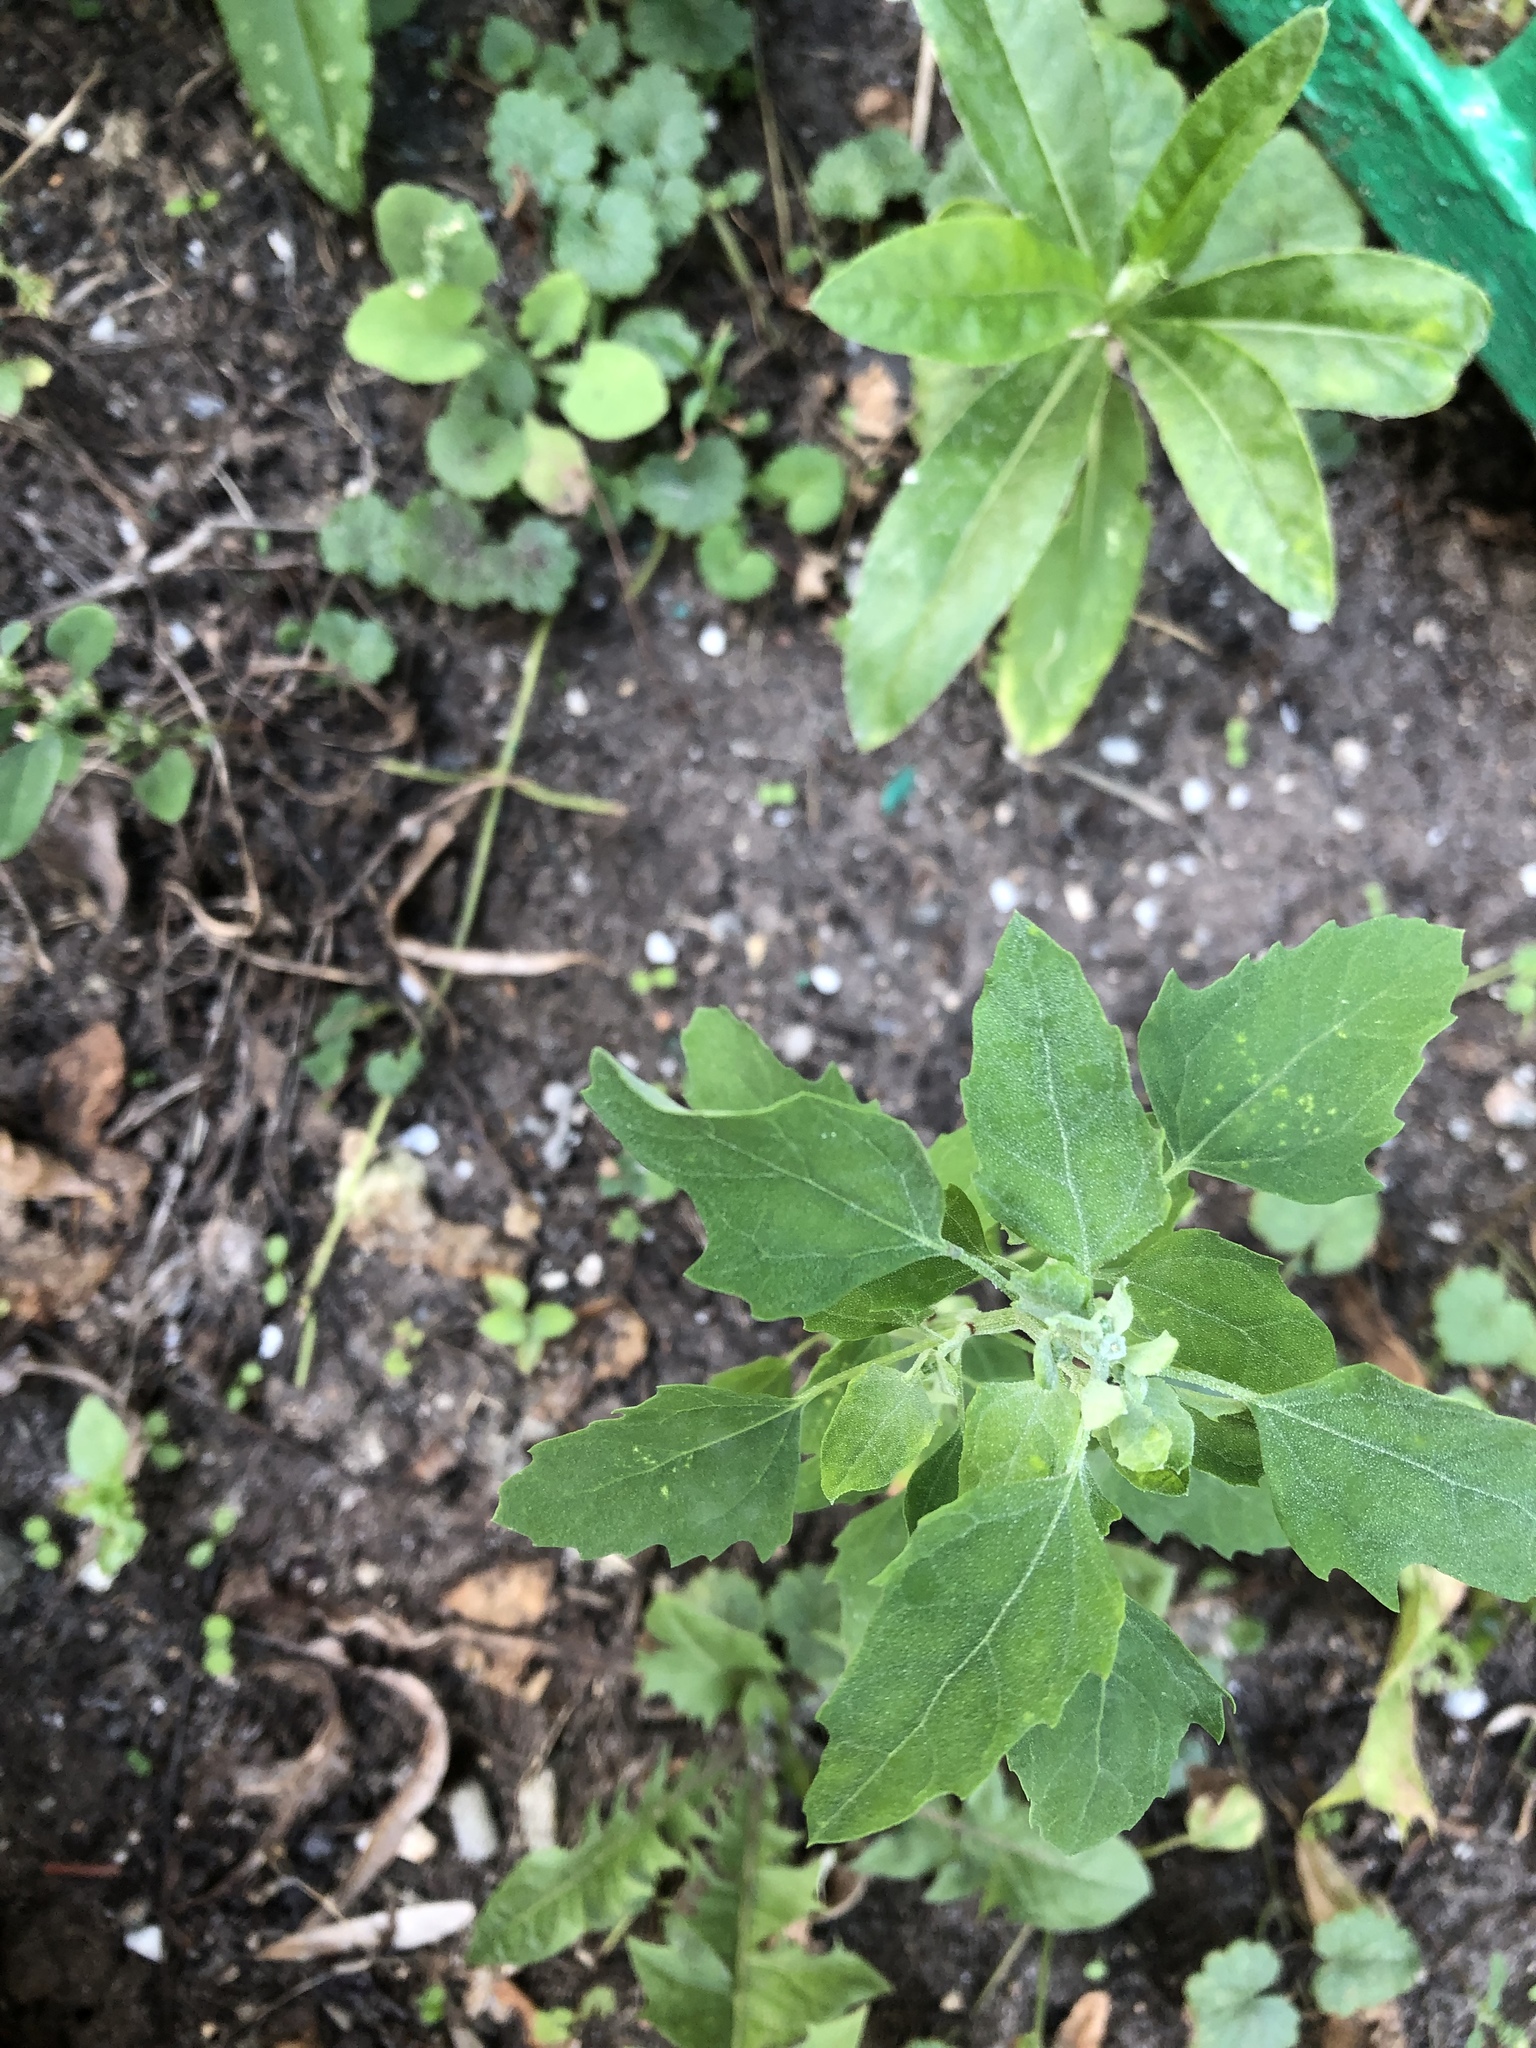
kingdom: Plantae
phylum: Tracheophyta
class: Magnoliopsida
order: Caryophyllales
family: Amaranthaceae
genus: Chenopodium
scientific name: Chenopodium album
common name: Fat-hen
